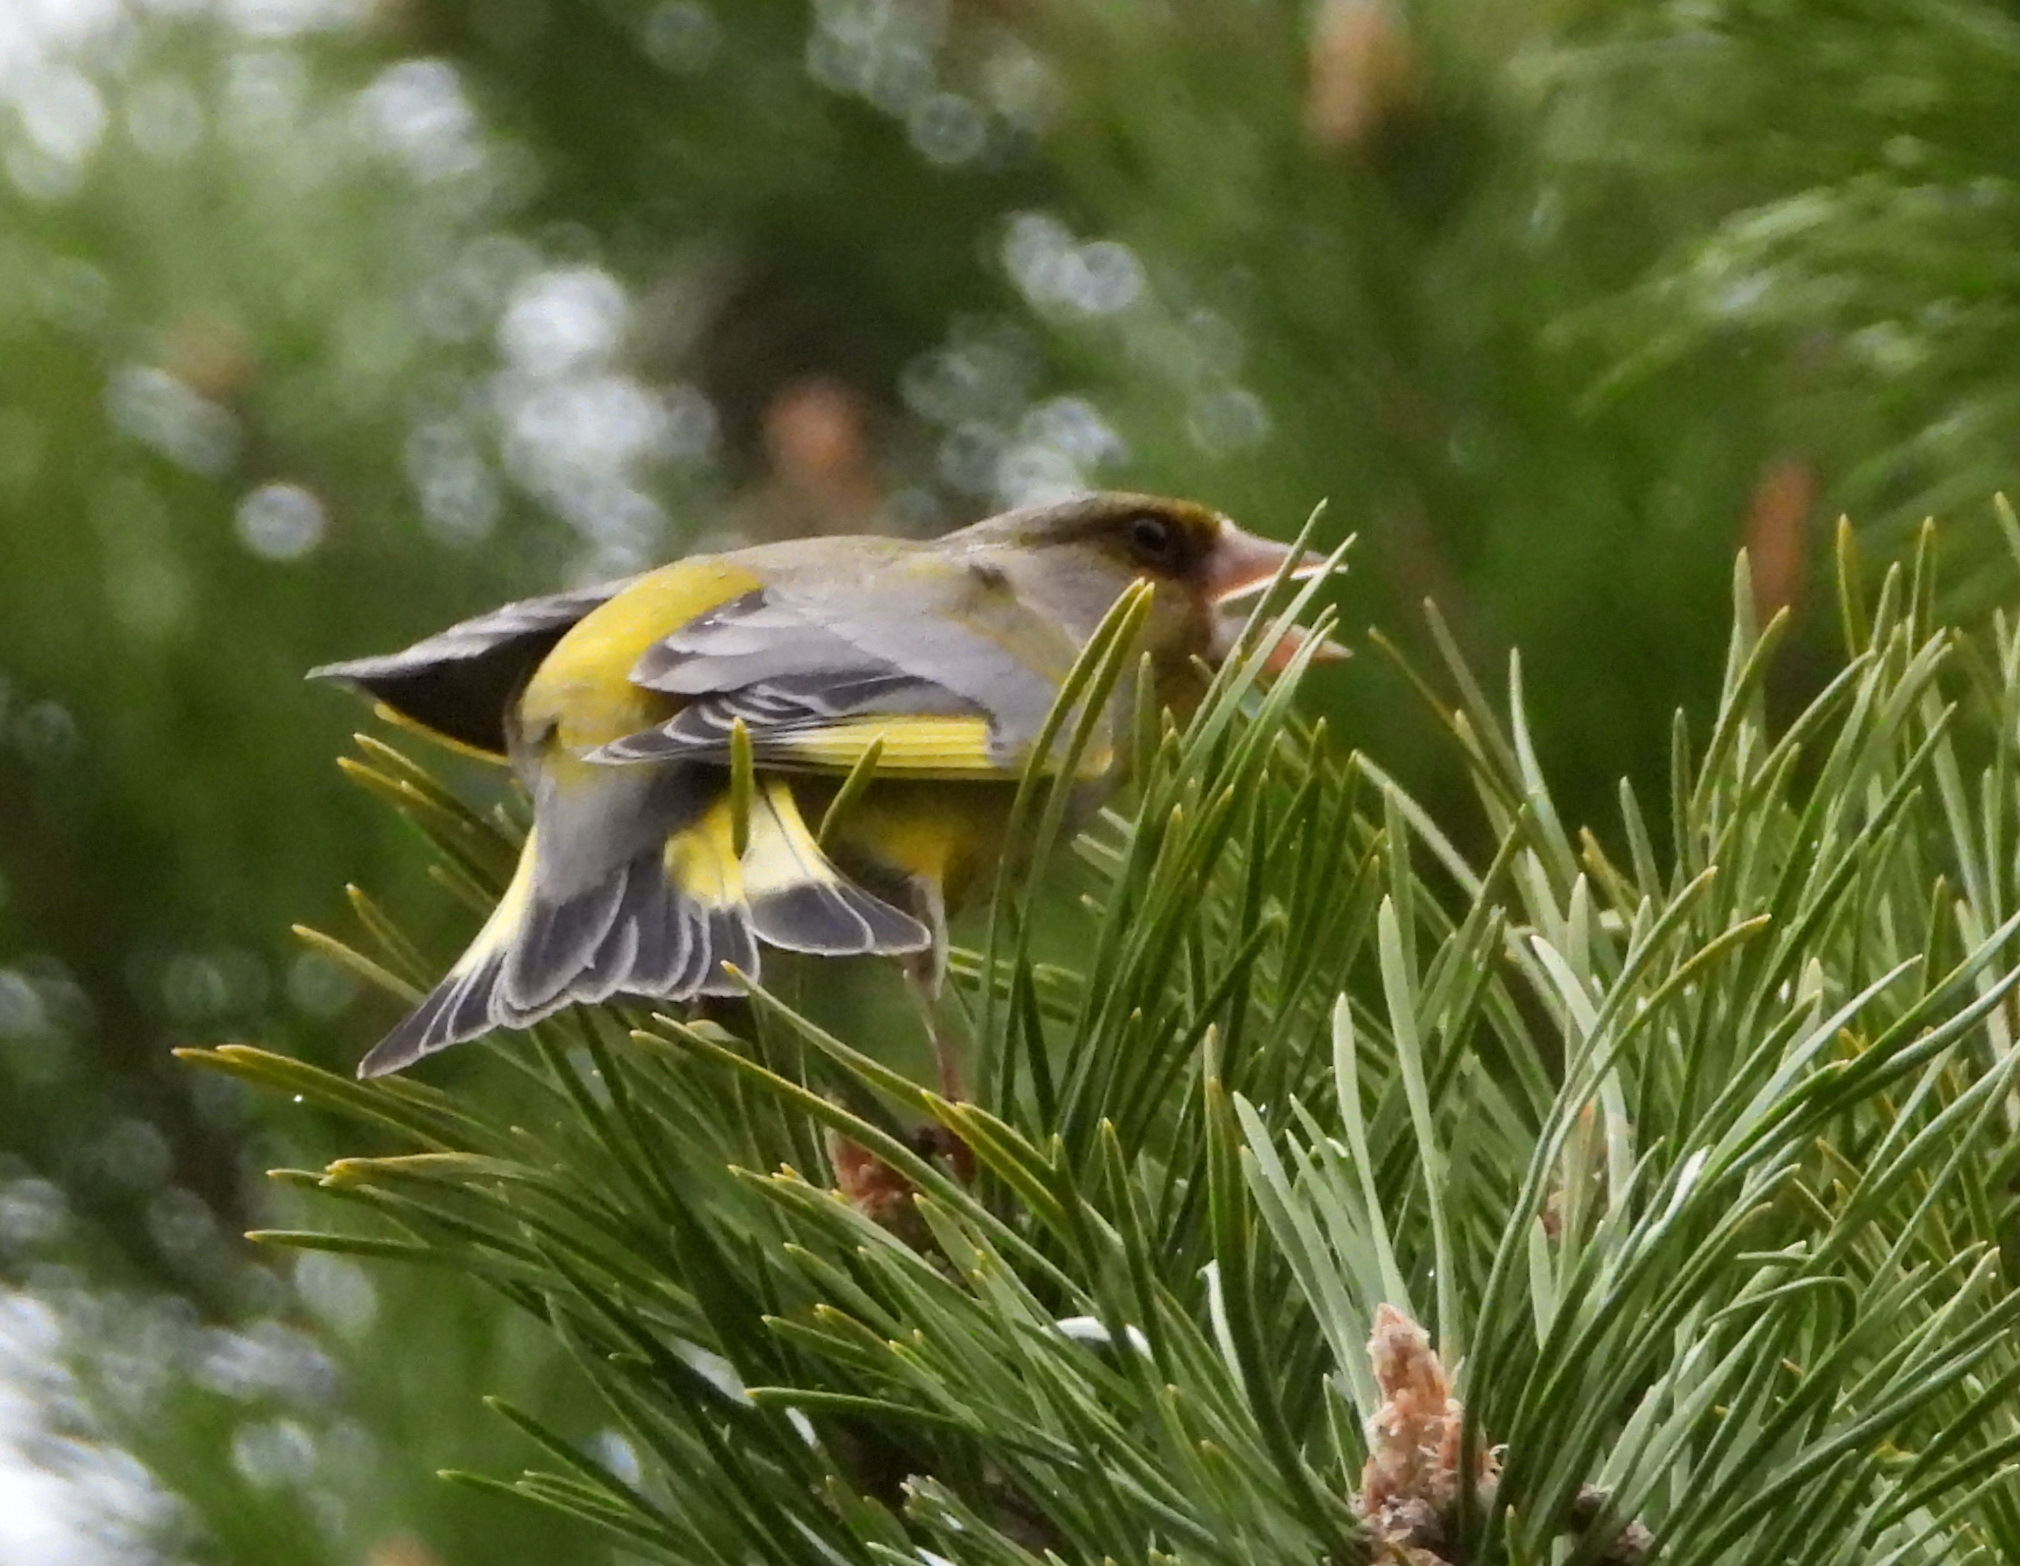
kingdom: Plantae
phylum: Tracheophyta
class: Liliopsida
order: Poales
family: Poaceae
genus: Chloris
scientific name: Chloris chloris
